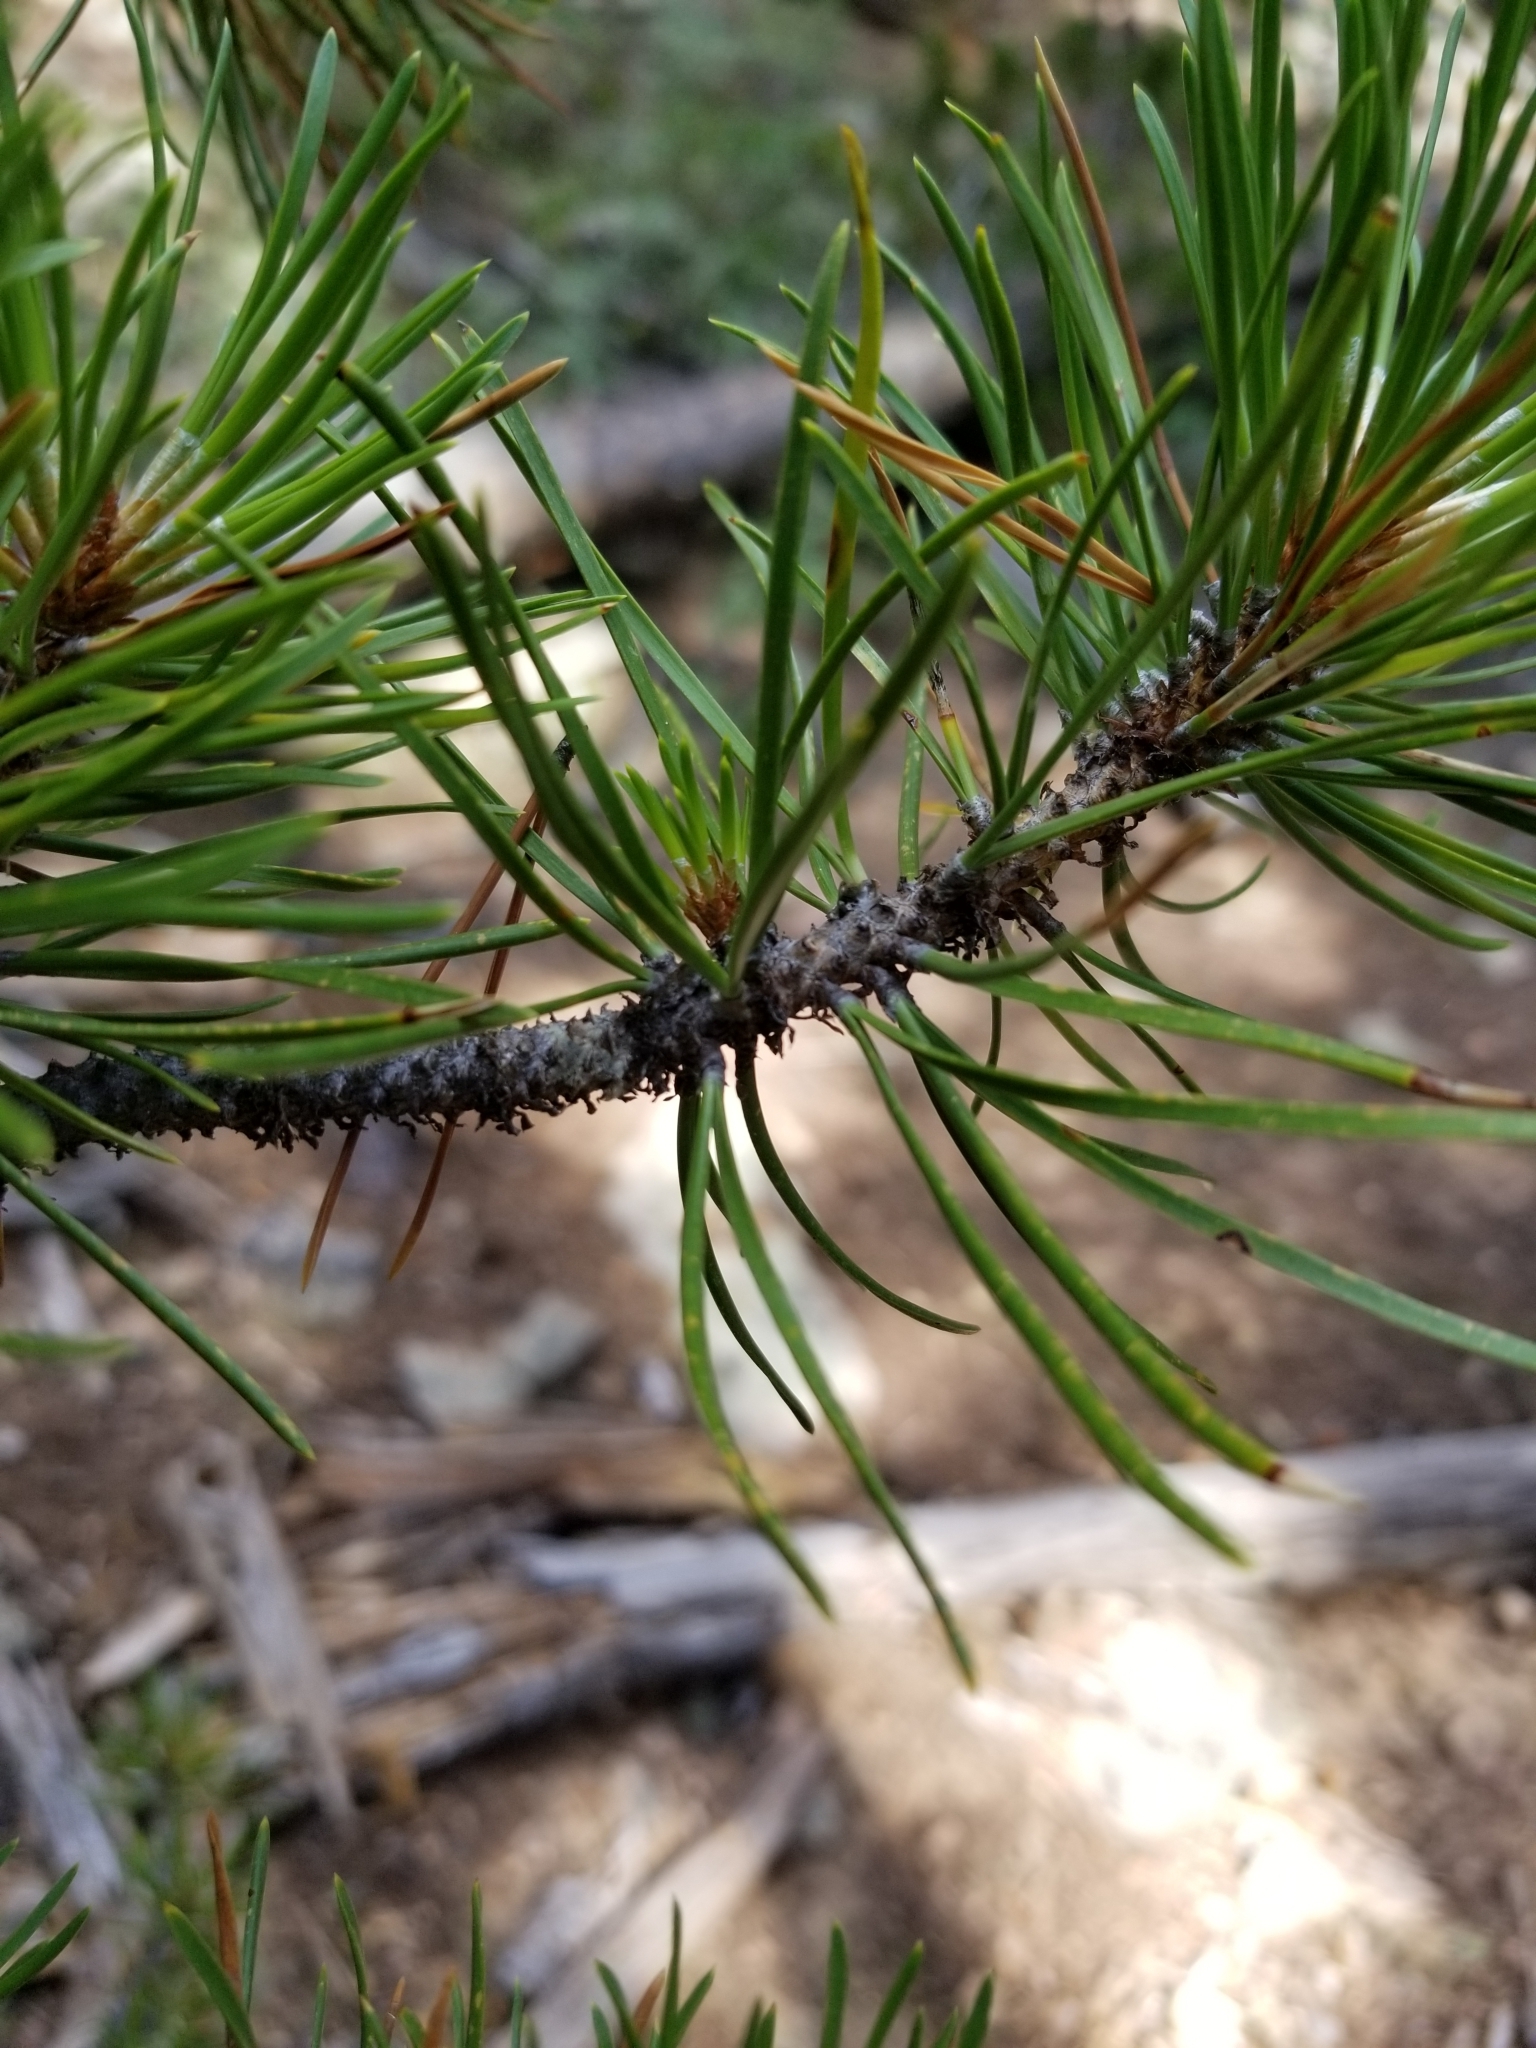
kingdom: Plantae
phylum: Tracheophyta
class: Pinopsida
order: Pinales
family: Pinaceae
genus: Pinus
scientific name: Pinus contorta
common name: Lodgepole pine
